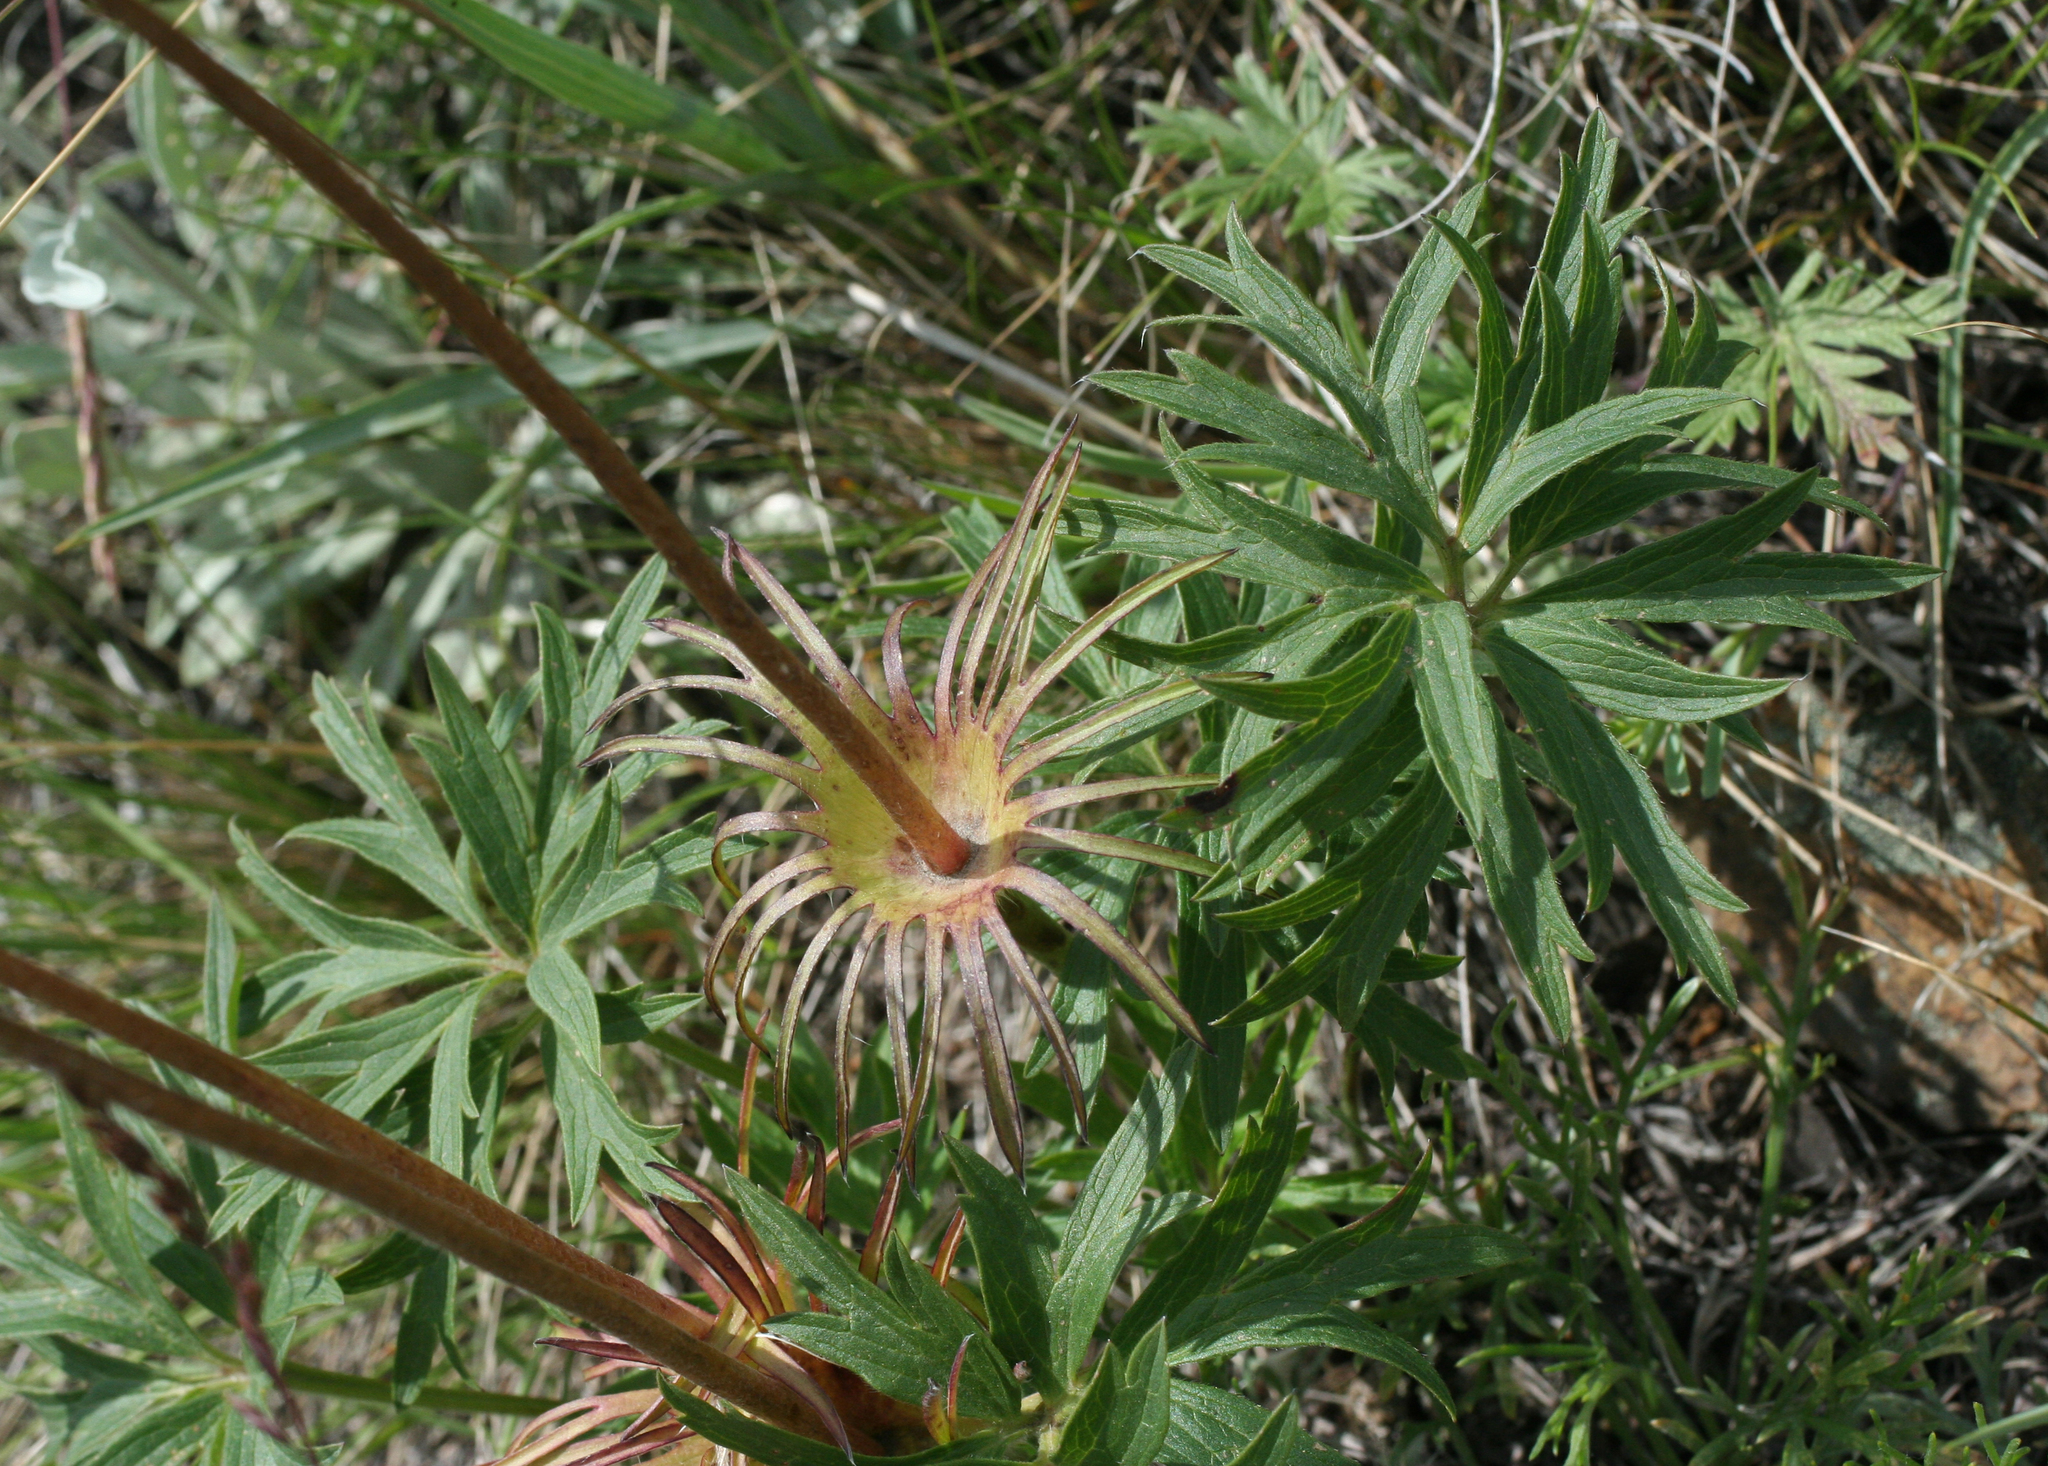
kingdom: Plantae
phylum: Tracheophyta
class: Magnoliopsida
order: Ranunculales
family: Ranunculaceae
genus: Pulsatilla
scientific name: Pulsatilla patens
